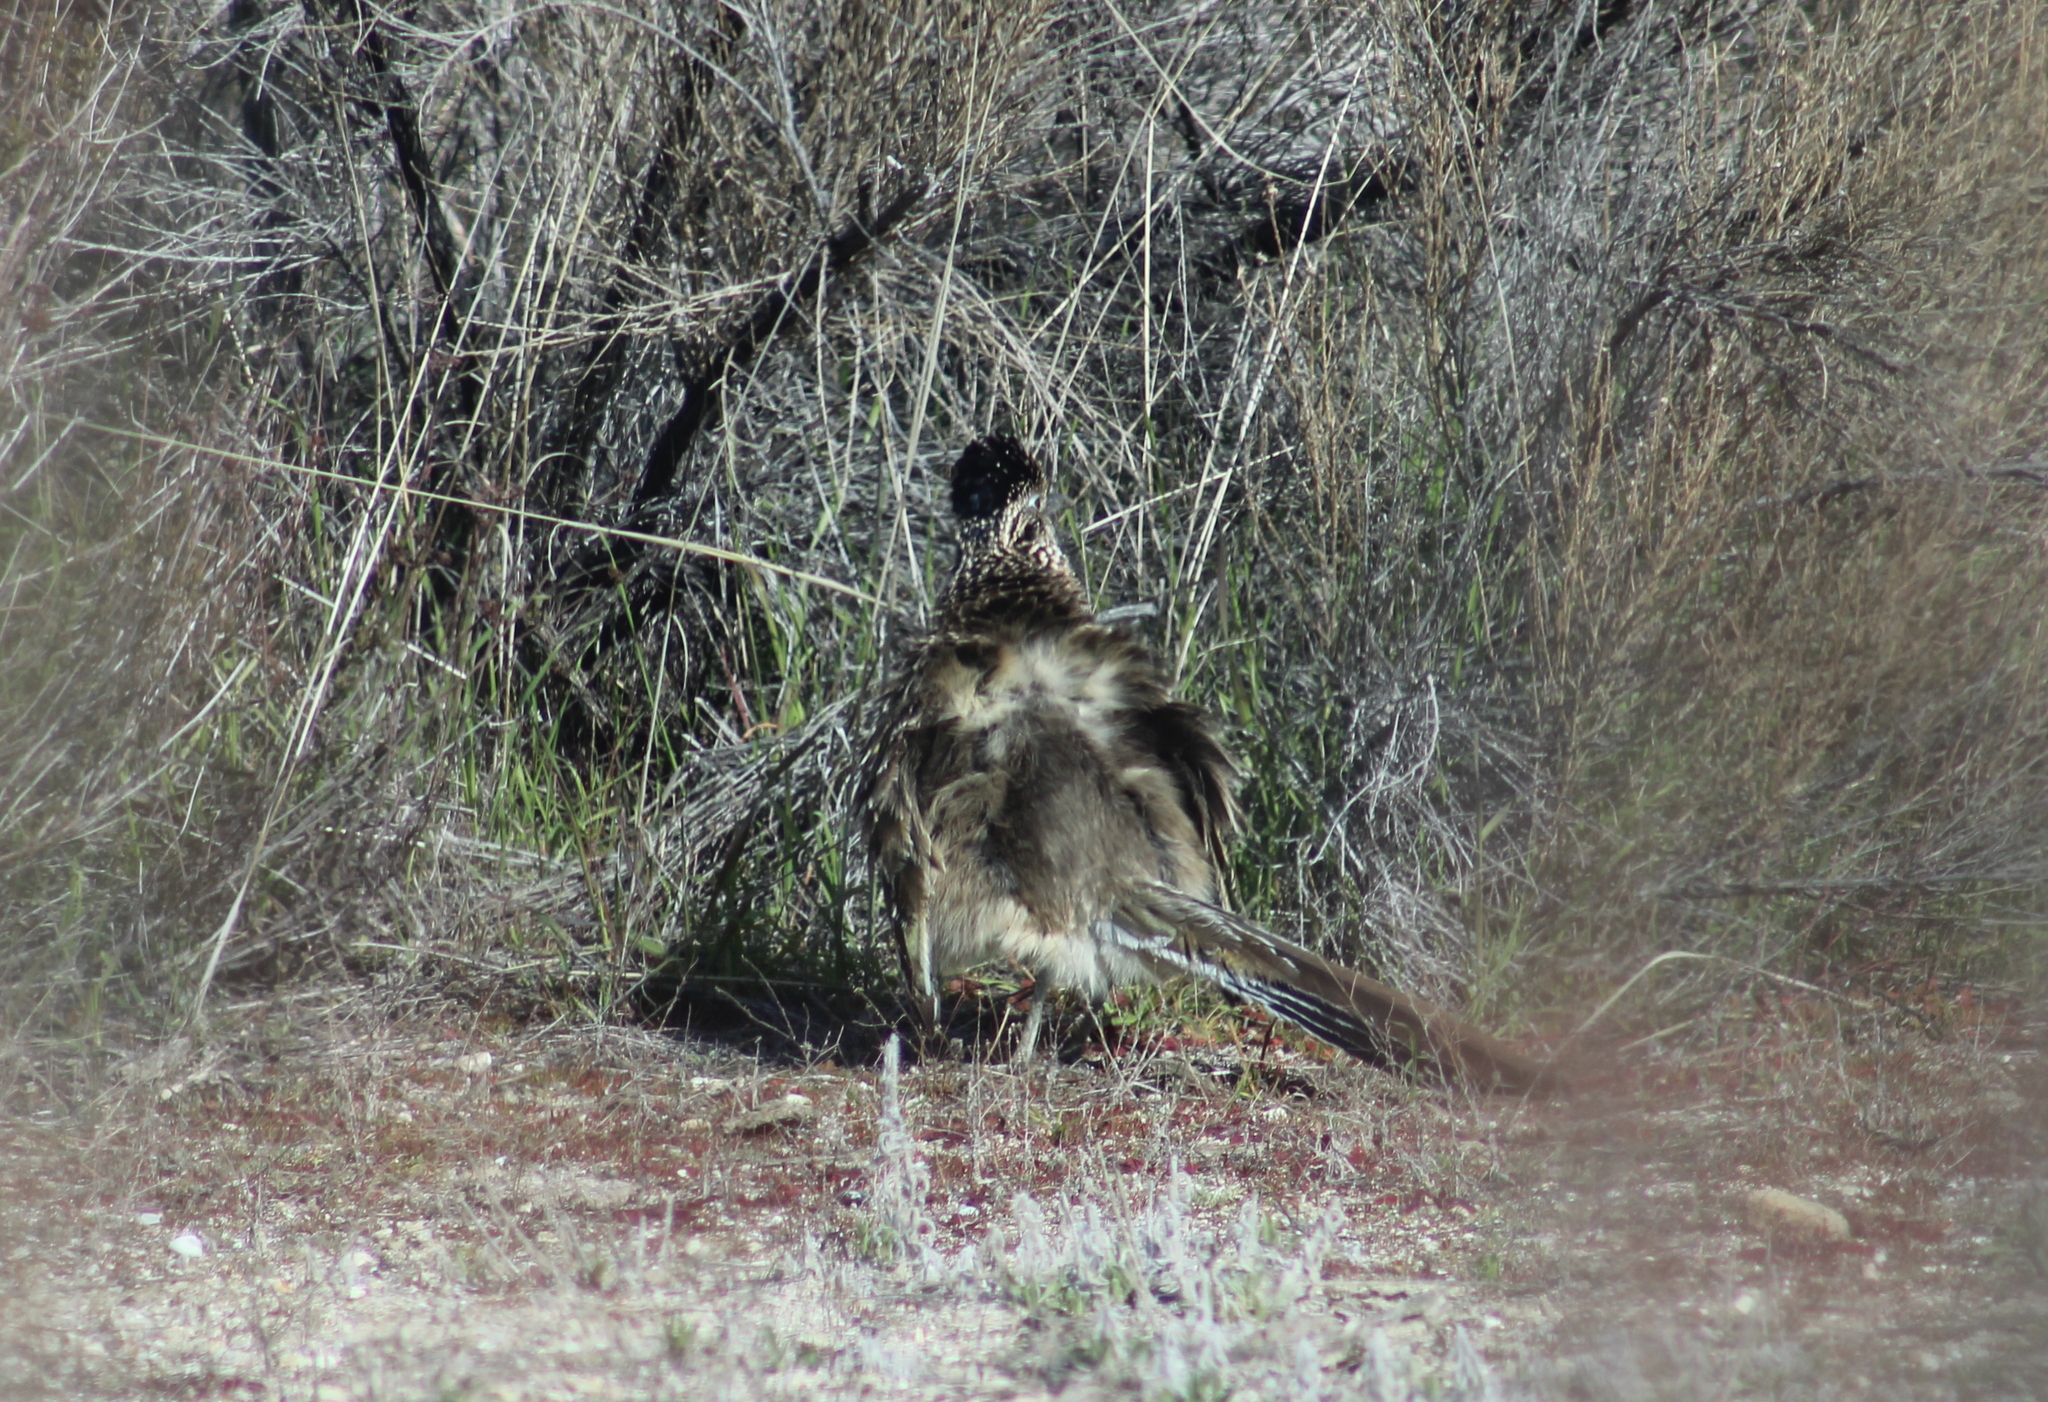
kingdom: Animalia
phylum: Chordata
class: Aves
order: Cuculiformes
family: Cuculidae
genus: Geococcyx
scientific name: Geococcyx californianus
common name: Greater roadrunner
